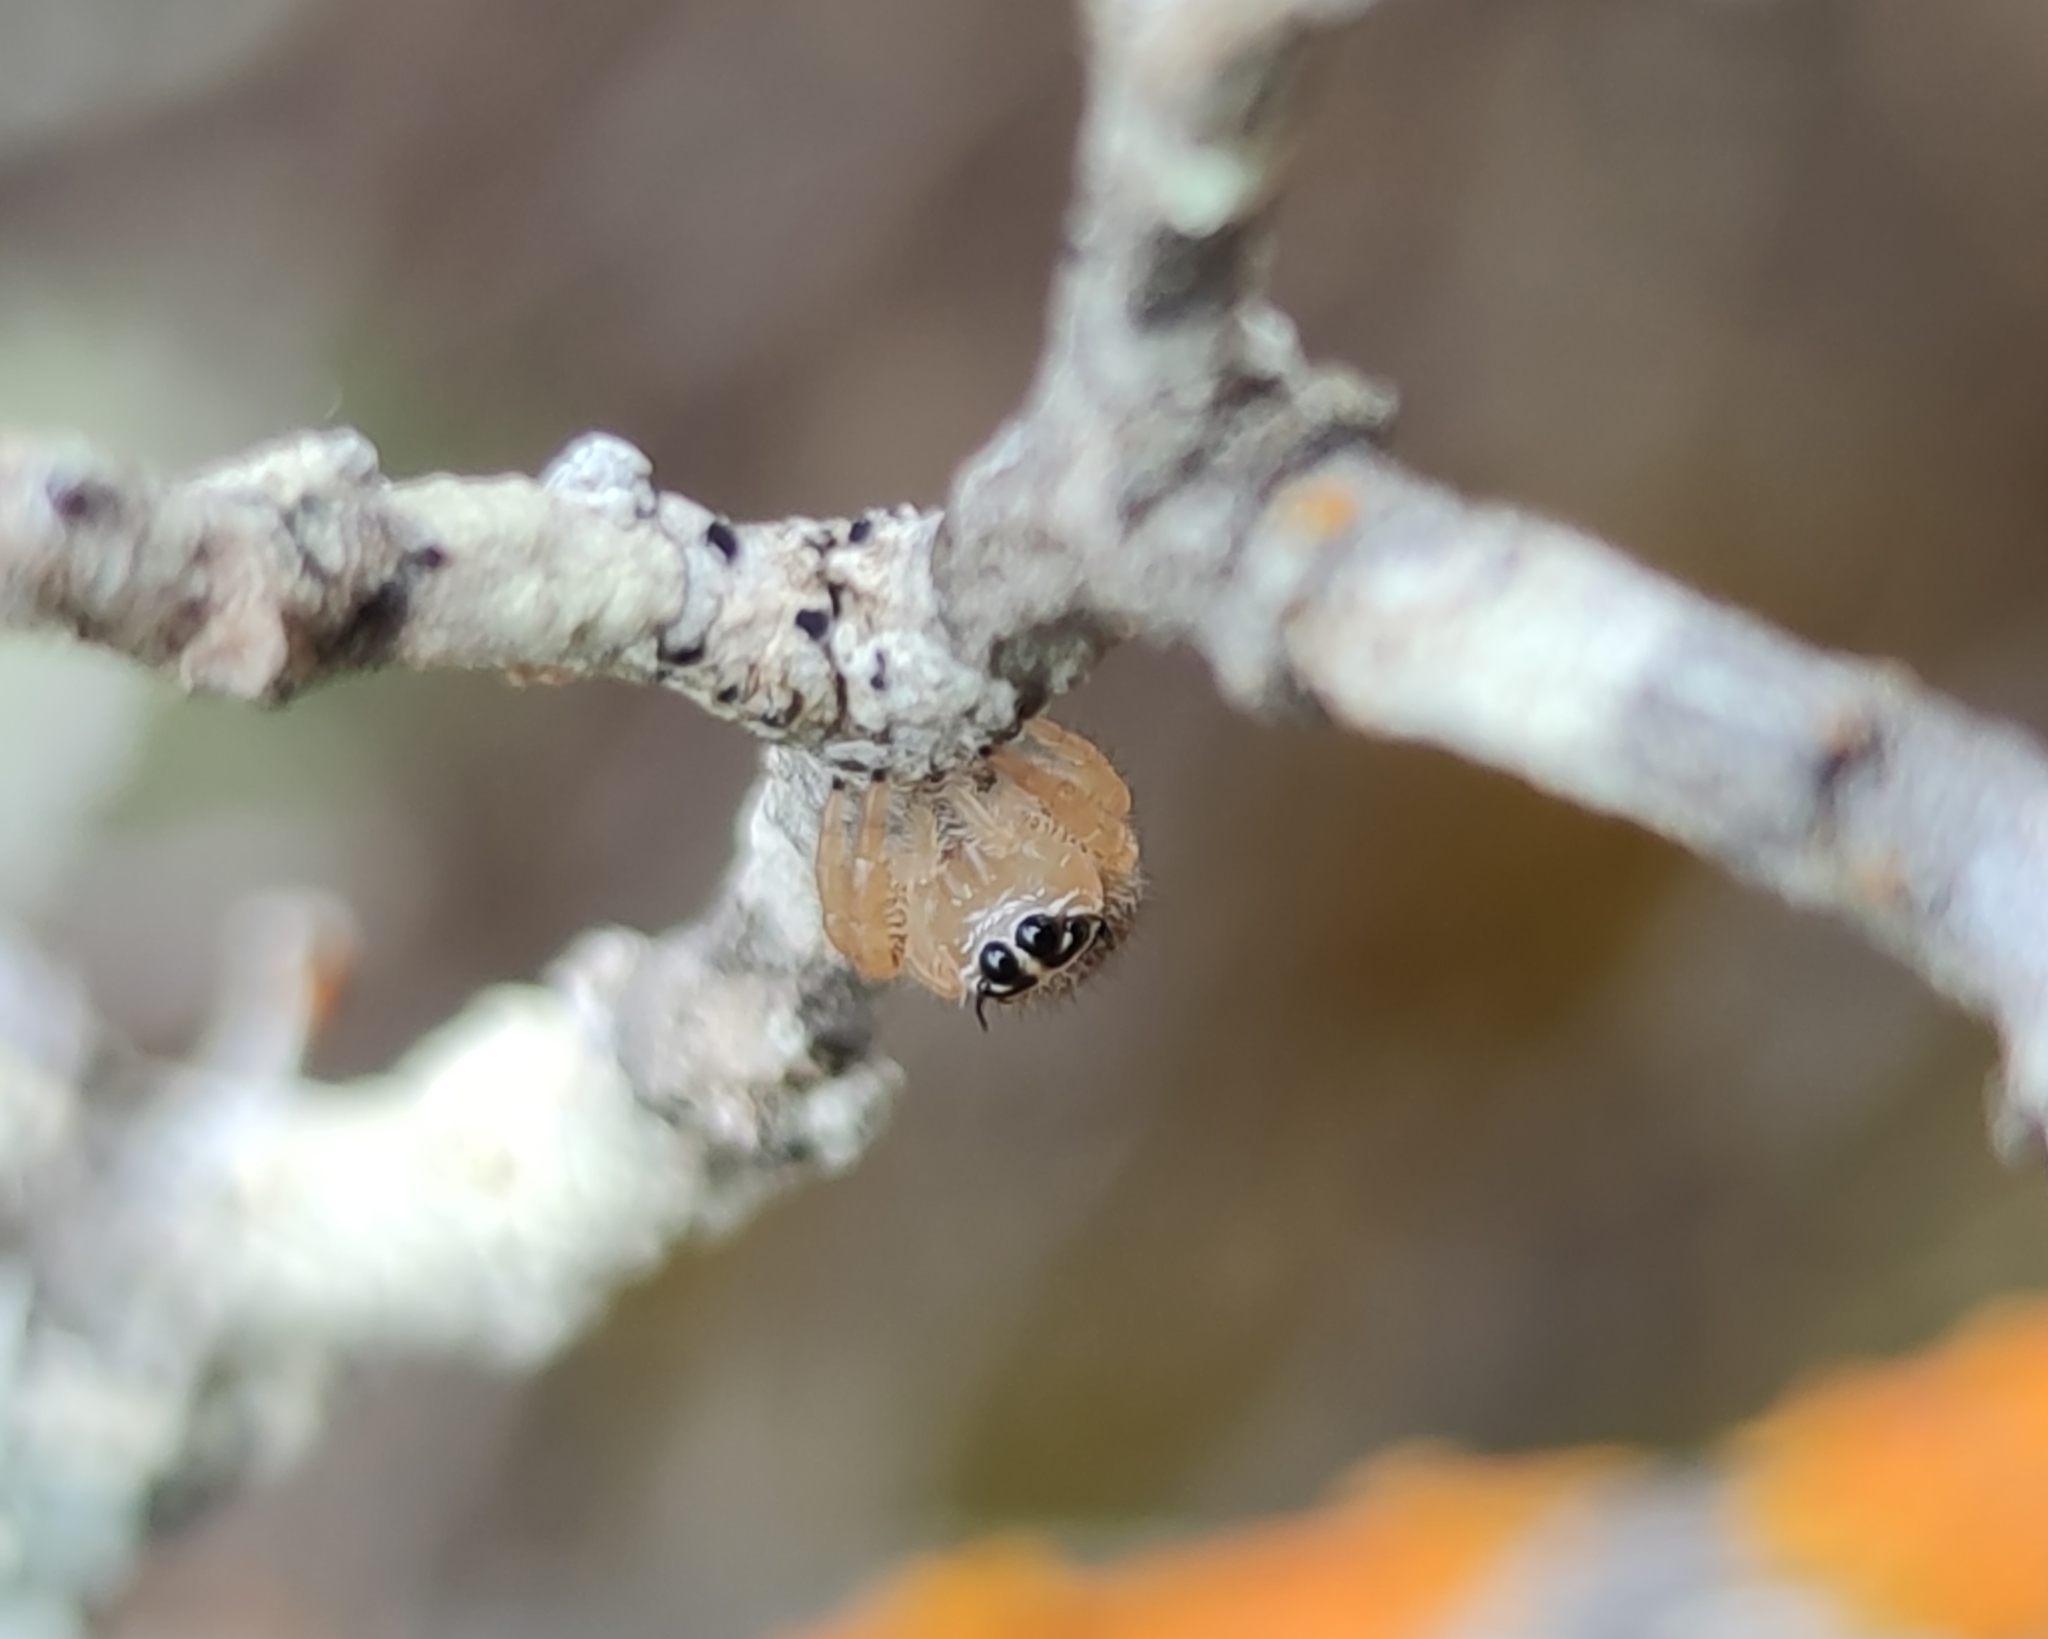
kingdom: Animalia
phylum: Arthropoda
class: Arachnida
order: Araneae
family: Salticidae
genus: Thyene
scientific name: Thyene inflata
